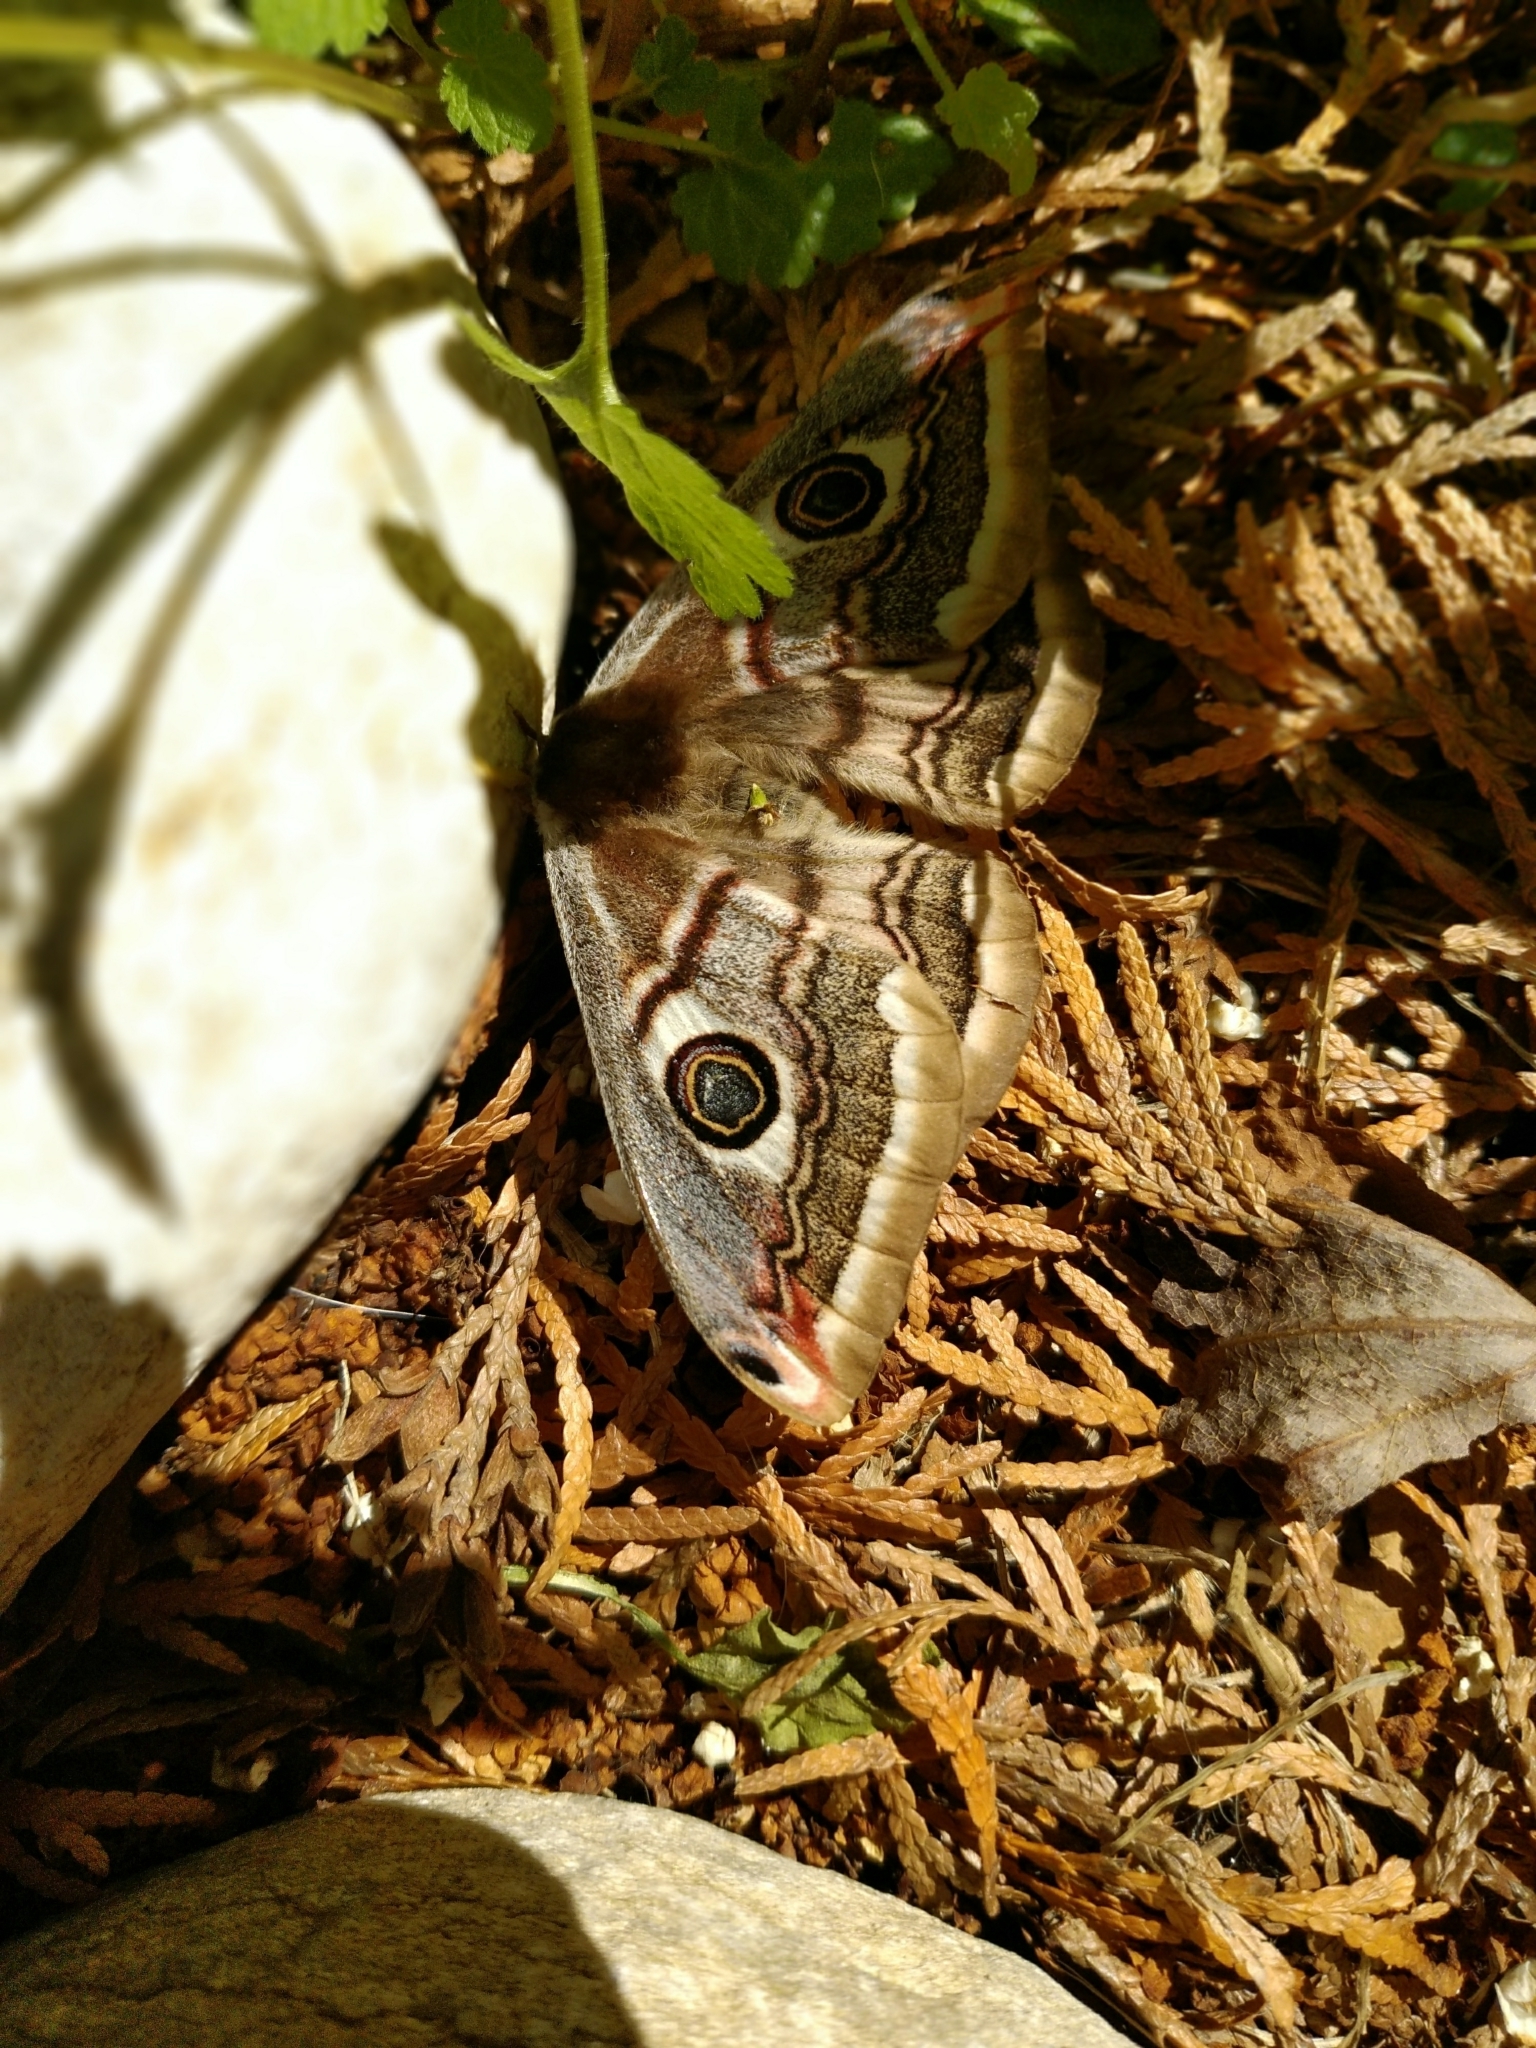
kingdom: Animalia
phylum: Arthropoda
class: Insecta
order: Lepidoptera
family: Saturniidae
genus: Saturnia
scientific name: Saturnia pavoniella
